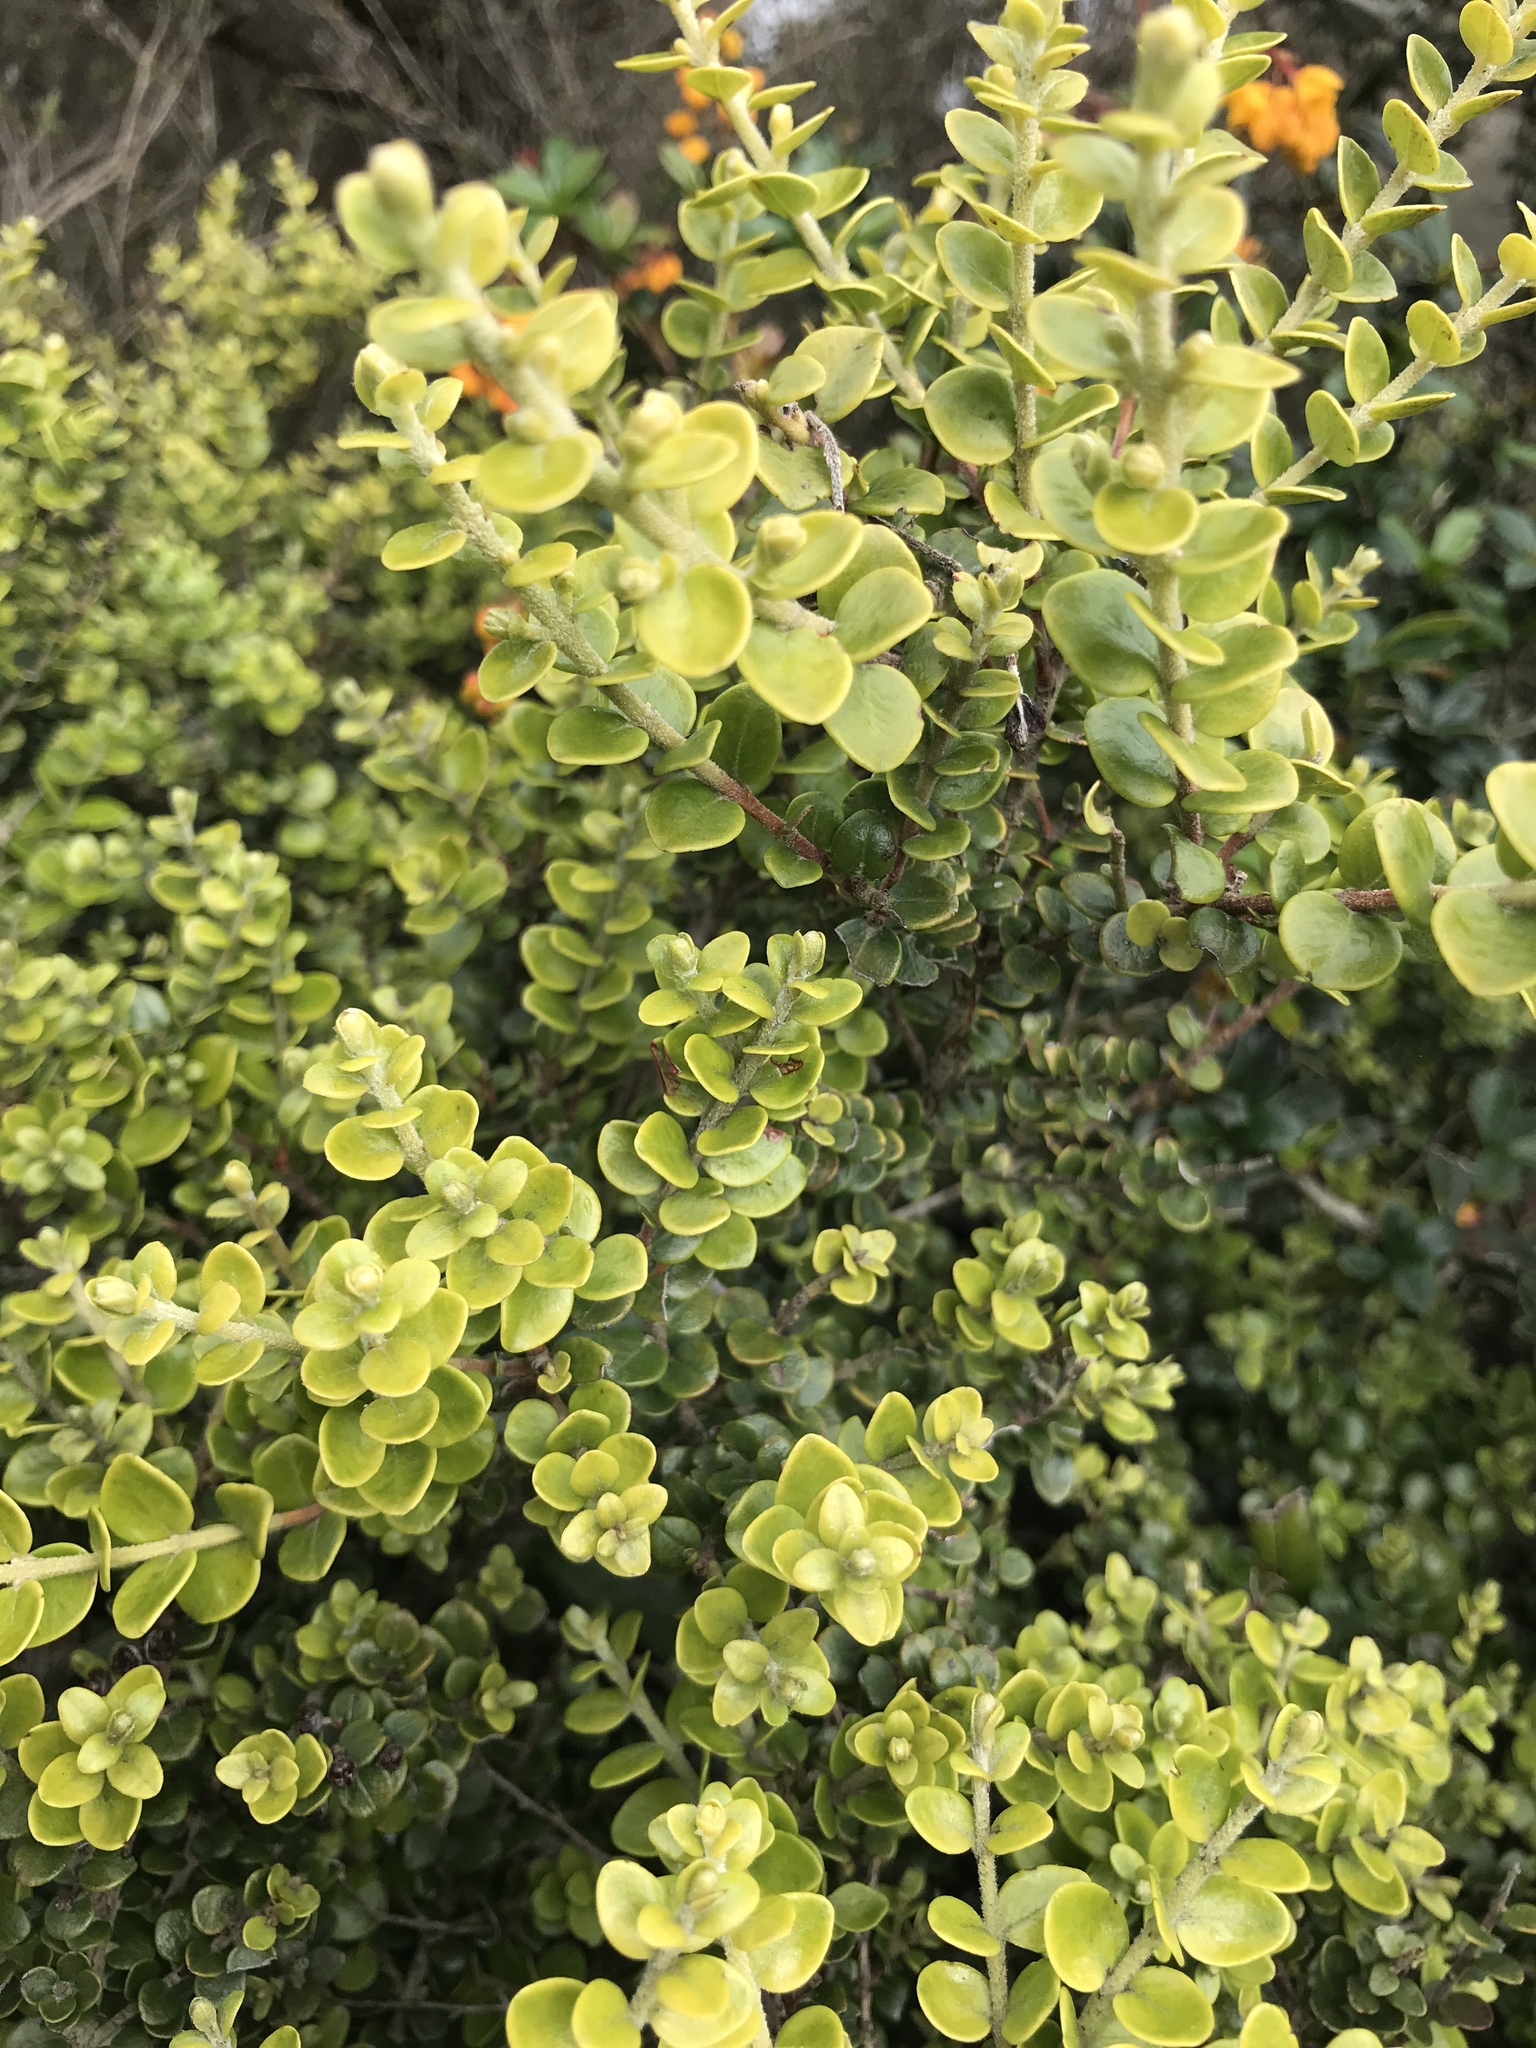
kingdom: Plantae
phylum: Tracheophyta
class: Magnoliopsida
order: Myrtales
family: Myrtaceae
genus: Metrosideros
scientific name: Metrosideros perforata
